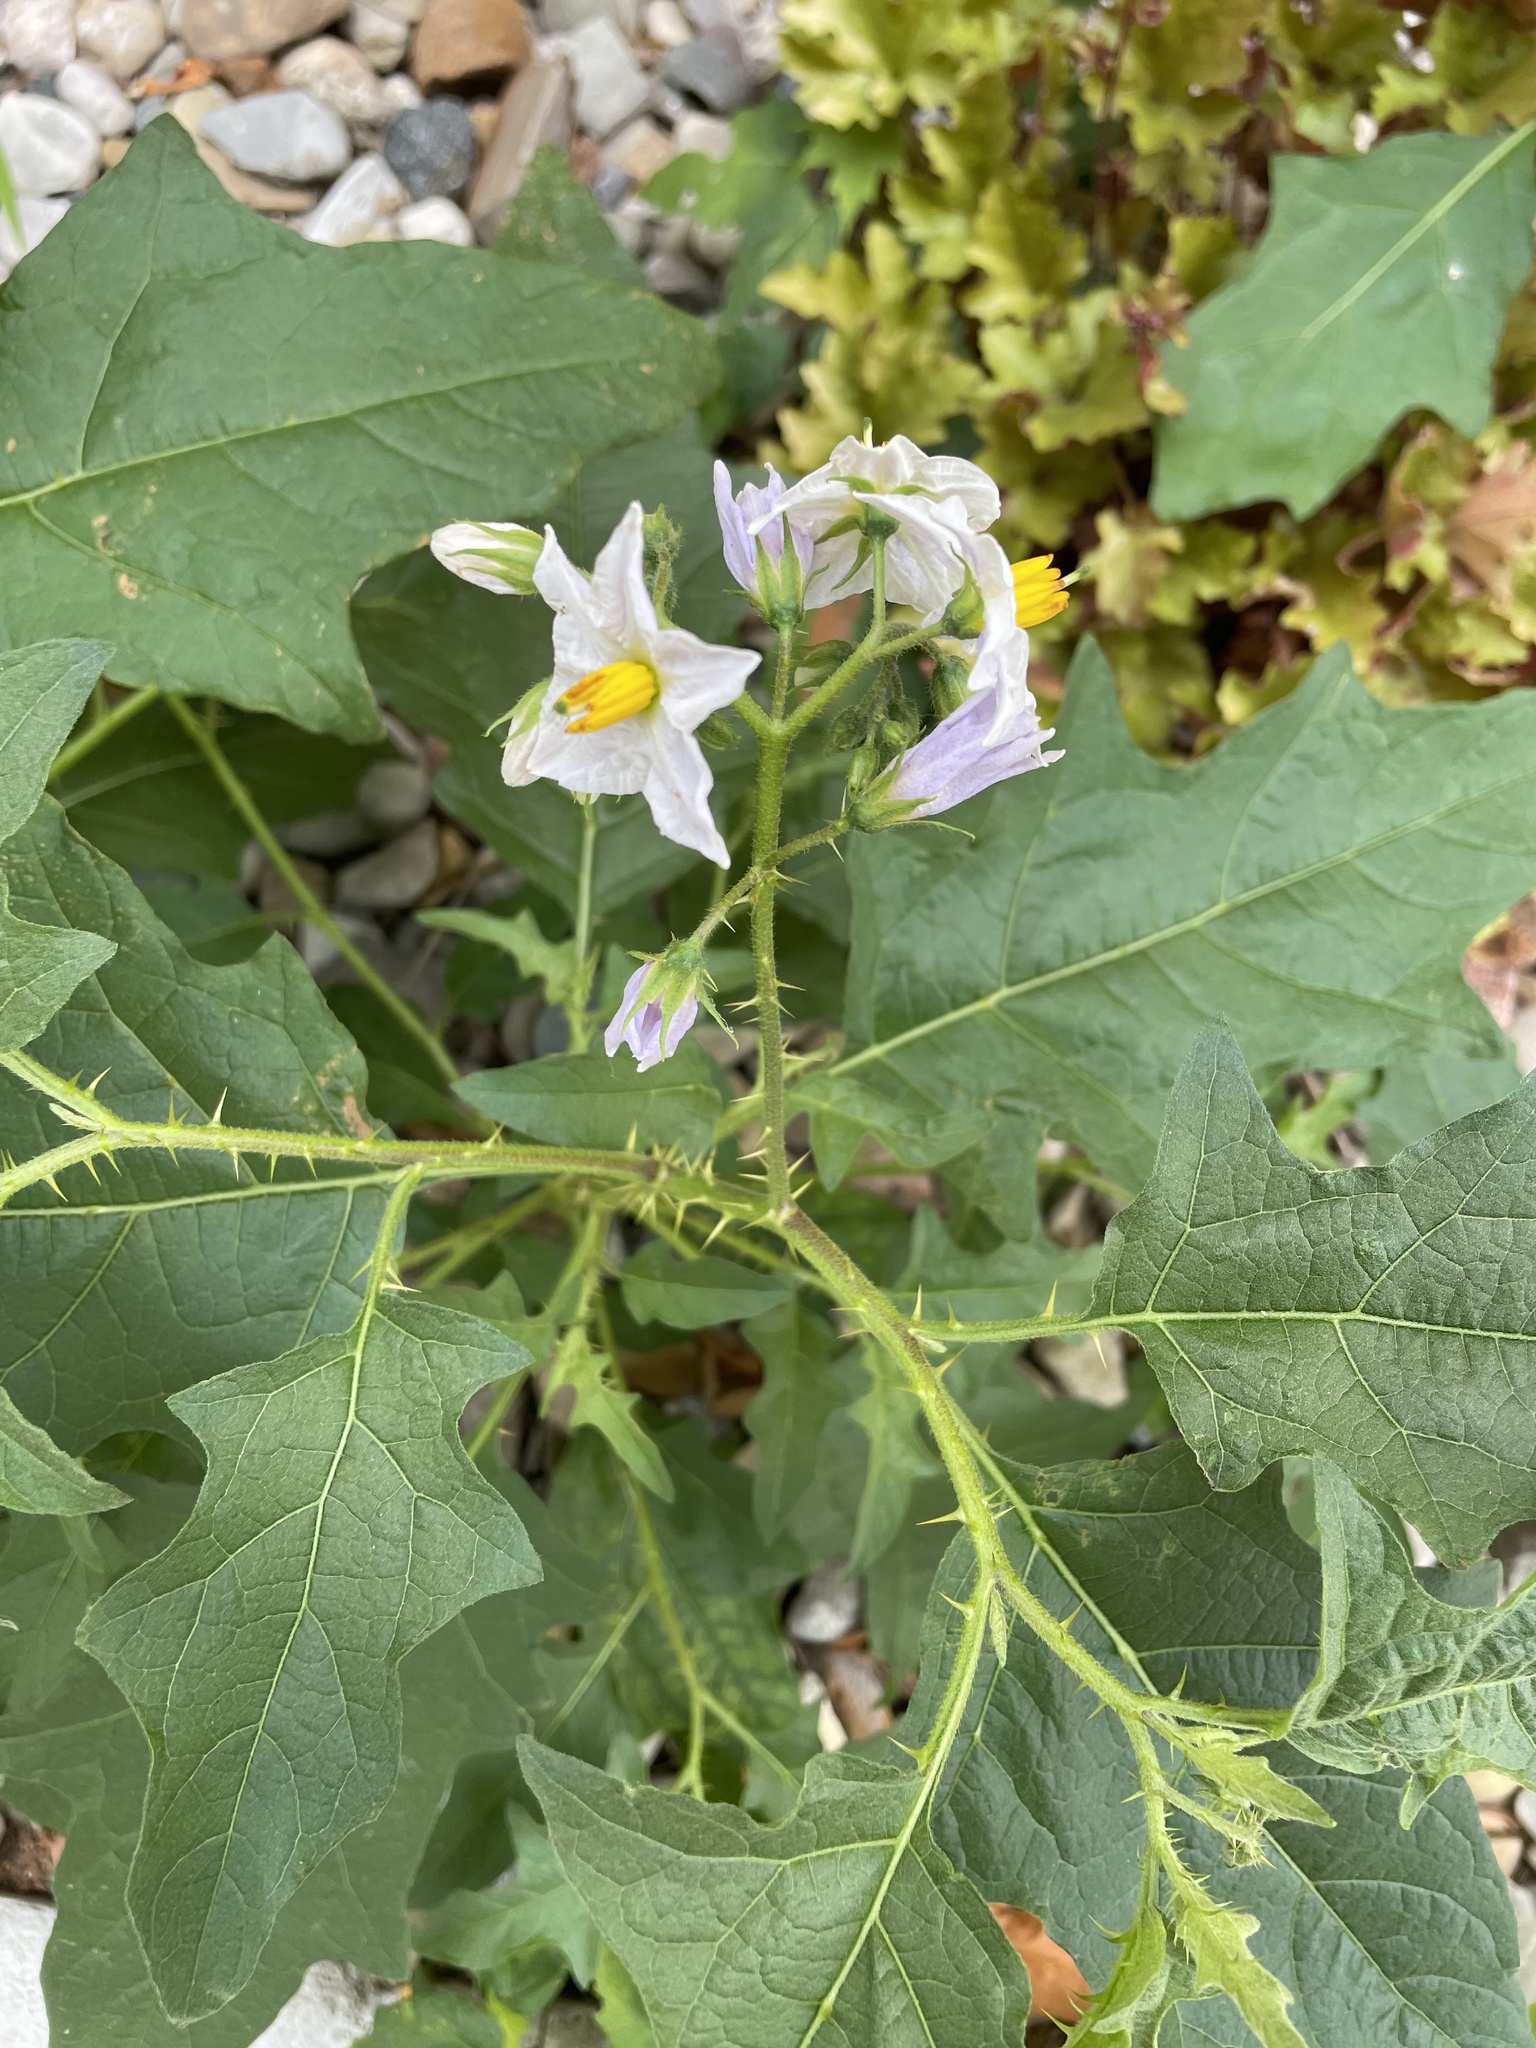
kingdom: Plantae
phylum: Tracheophyta
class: Magnoliopsida
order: Solanales
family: Solanaceae
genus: Solanum
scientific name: Solanum carolinense
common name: Horse-nettle
